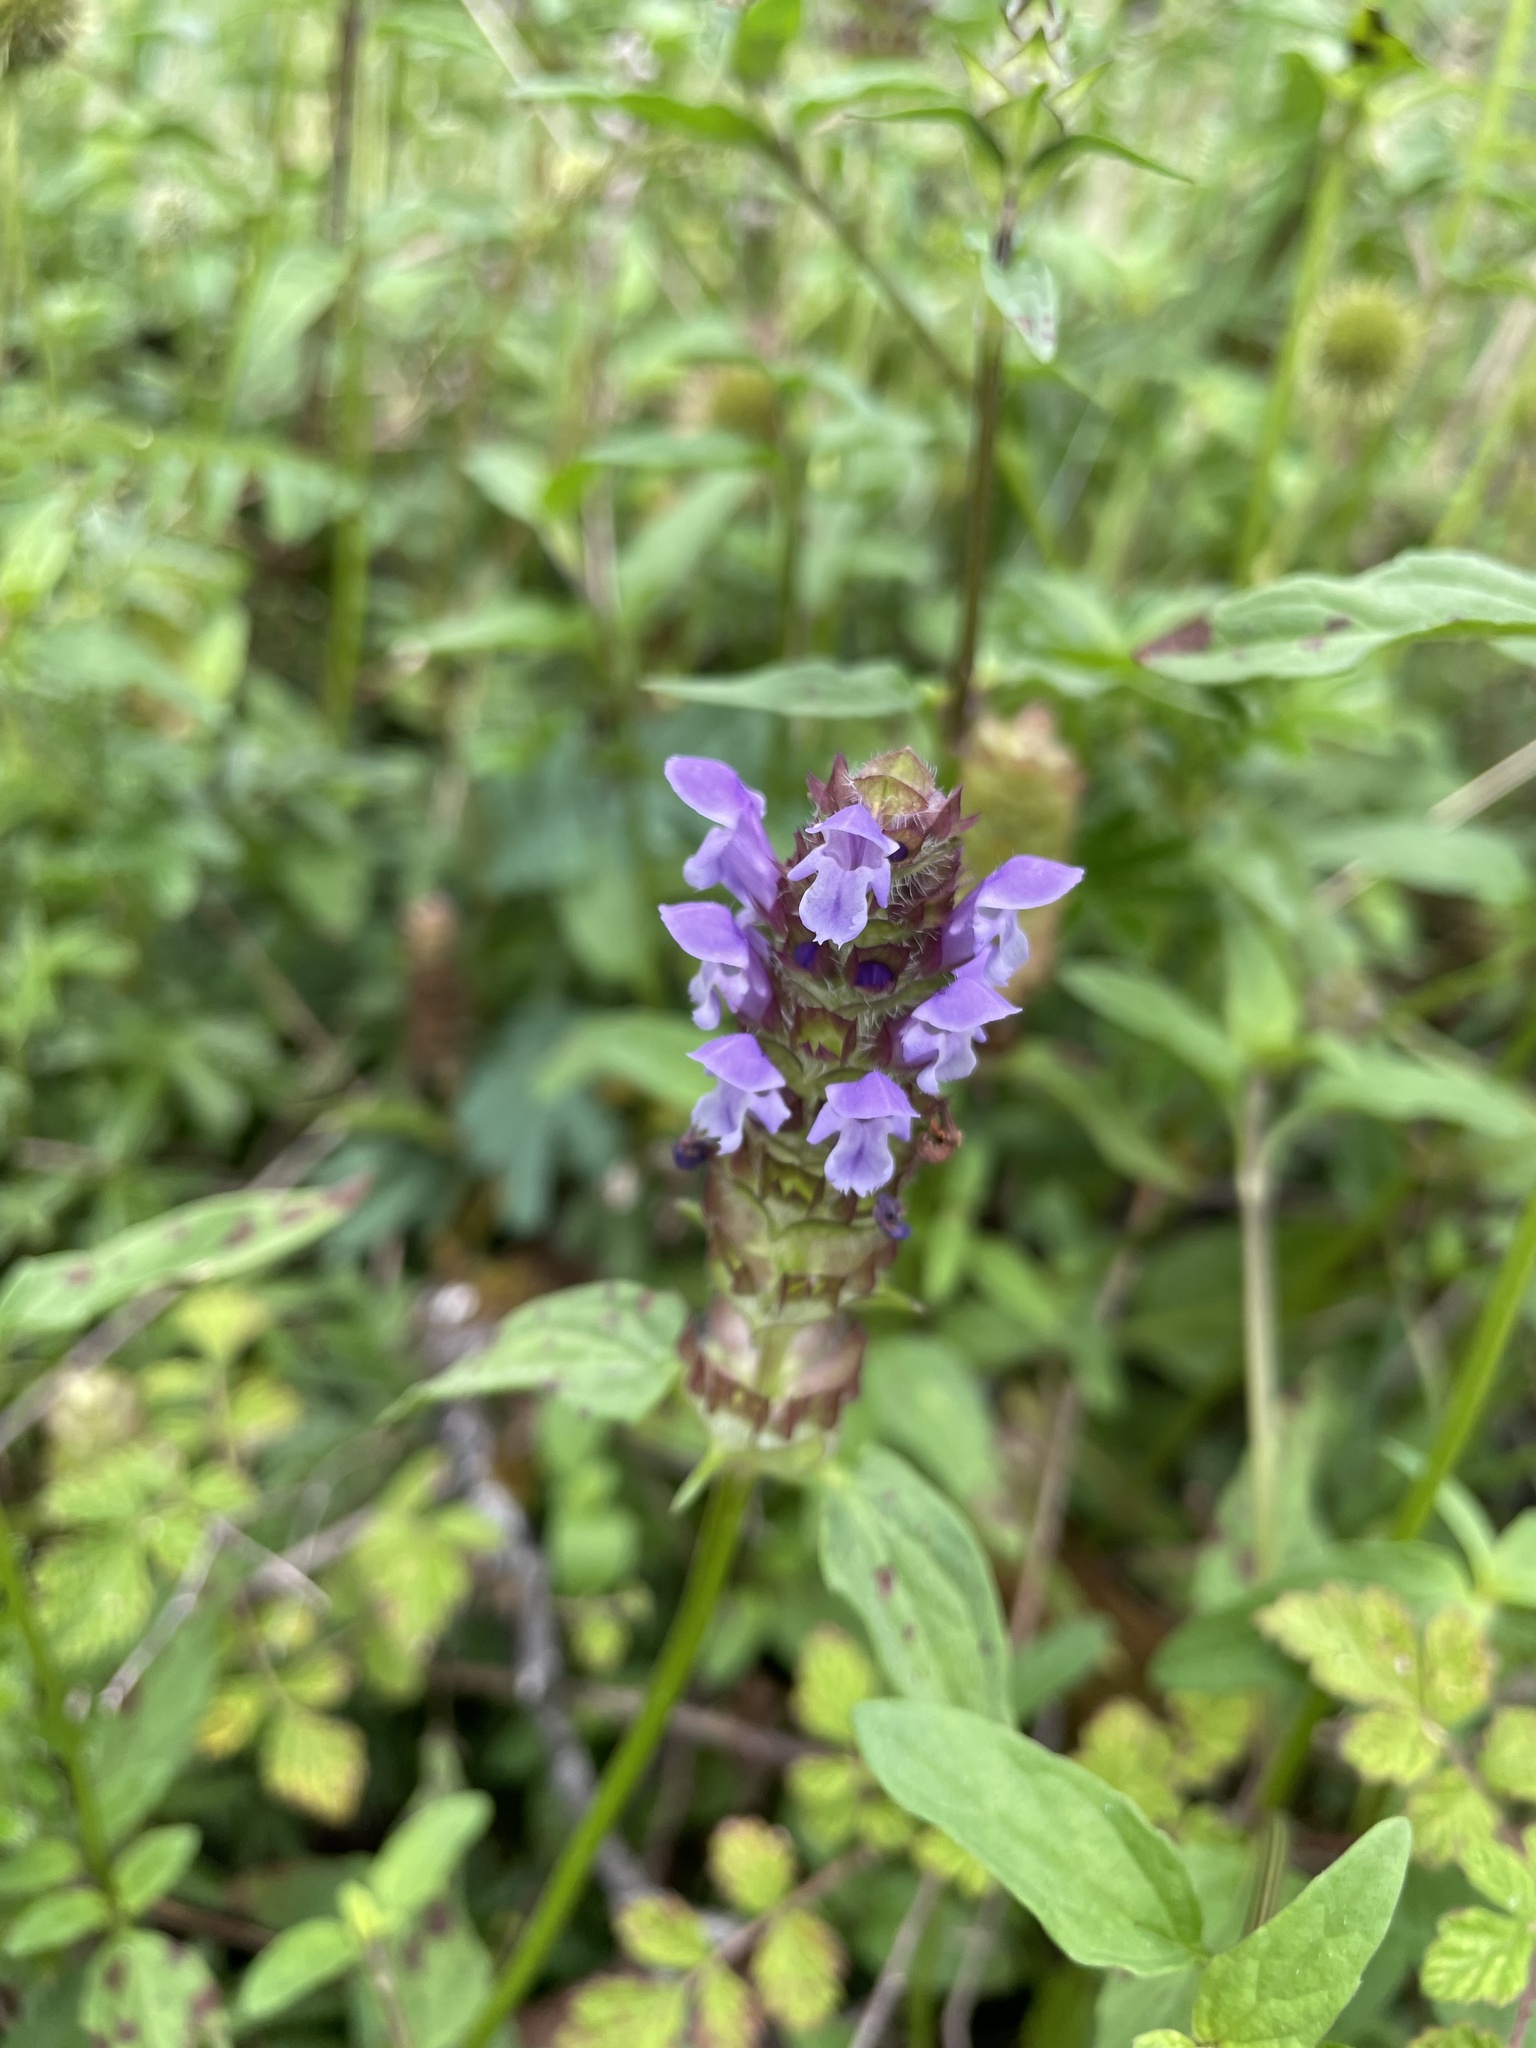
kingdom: Plantae
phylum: Tracheophyta
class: Magnoliopsida
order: Lamiales
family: Lamiaceae
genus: Prunella
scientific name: Prunella vulgaris
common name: Heal-all
